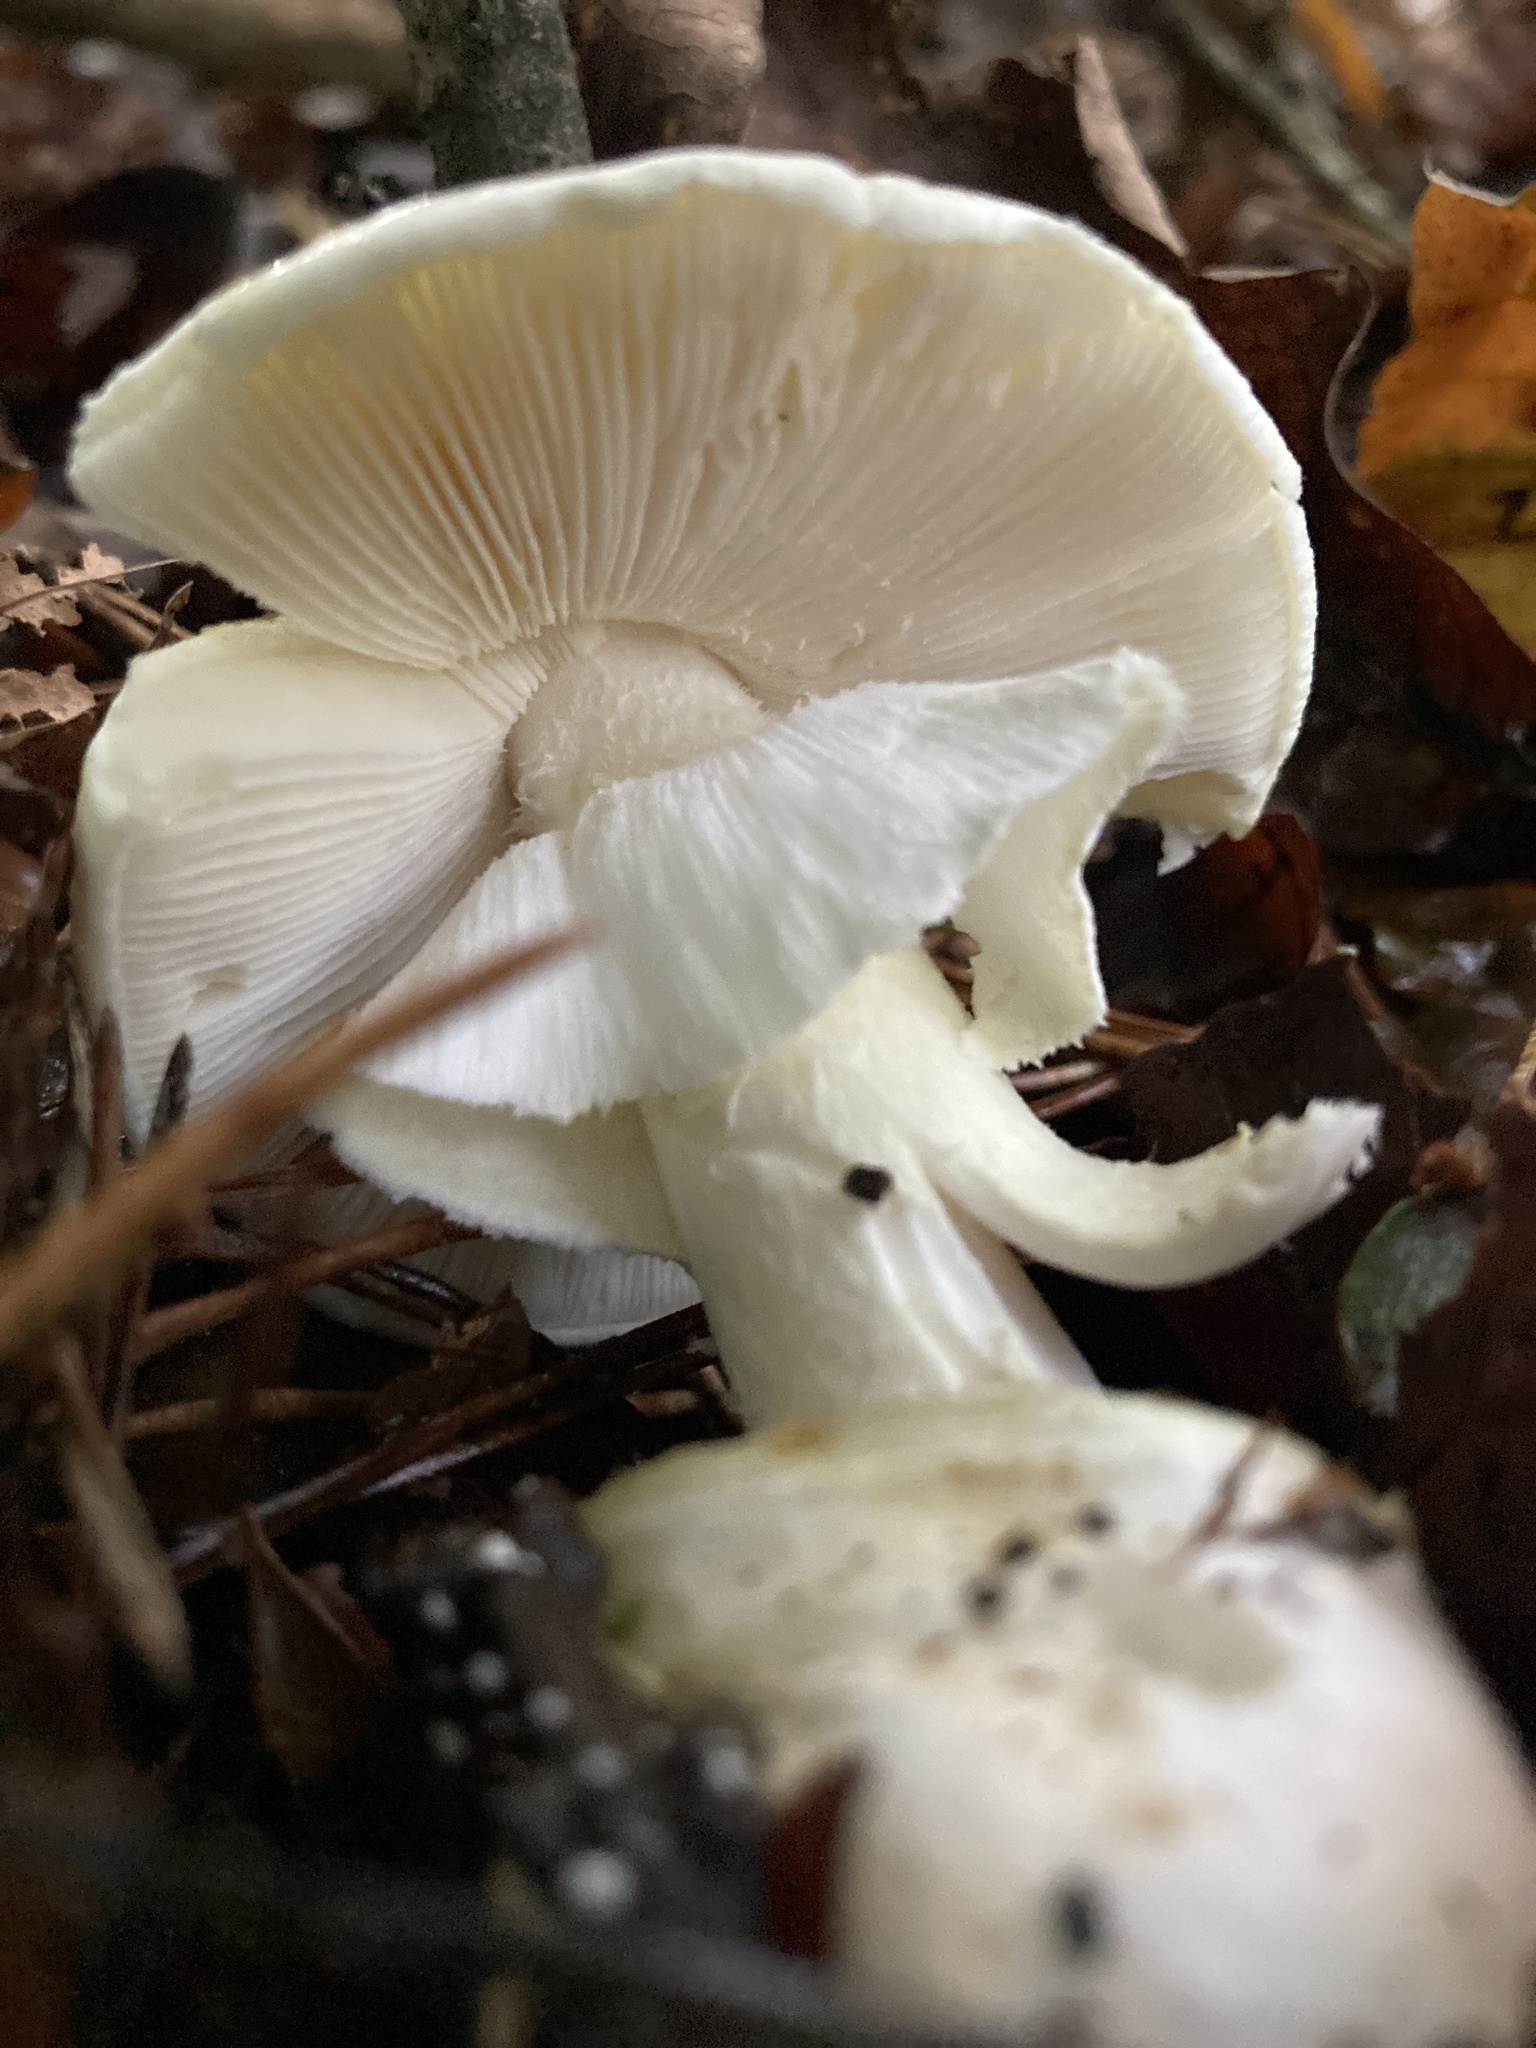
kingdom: Fungi
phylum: Basidiomycota
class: Agaricomycetes
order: Agaricales
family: Amanitaceae
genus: Amanita
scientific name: Amanita phalloides
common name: Death cap
